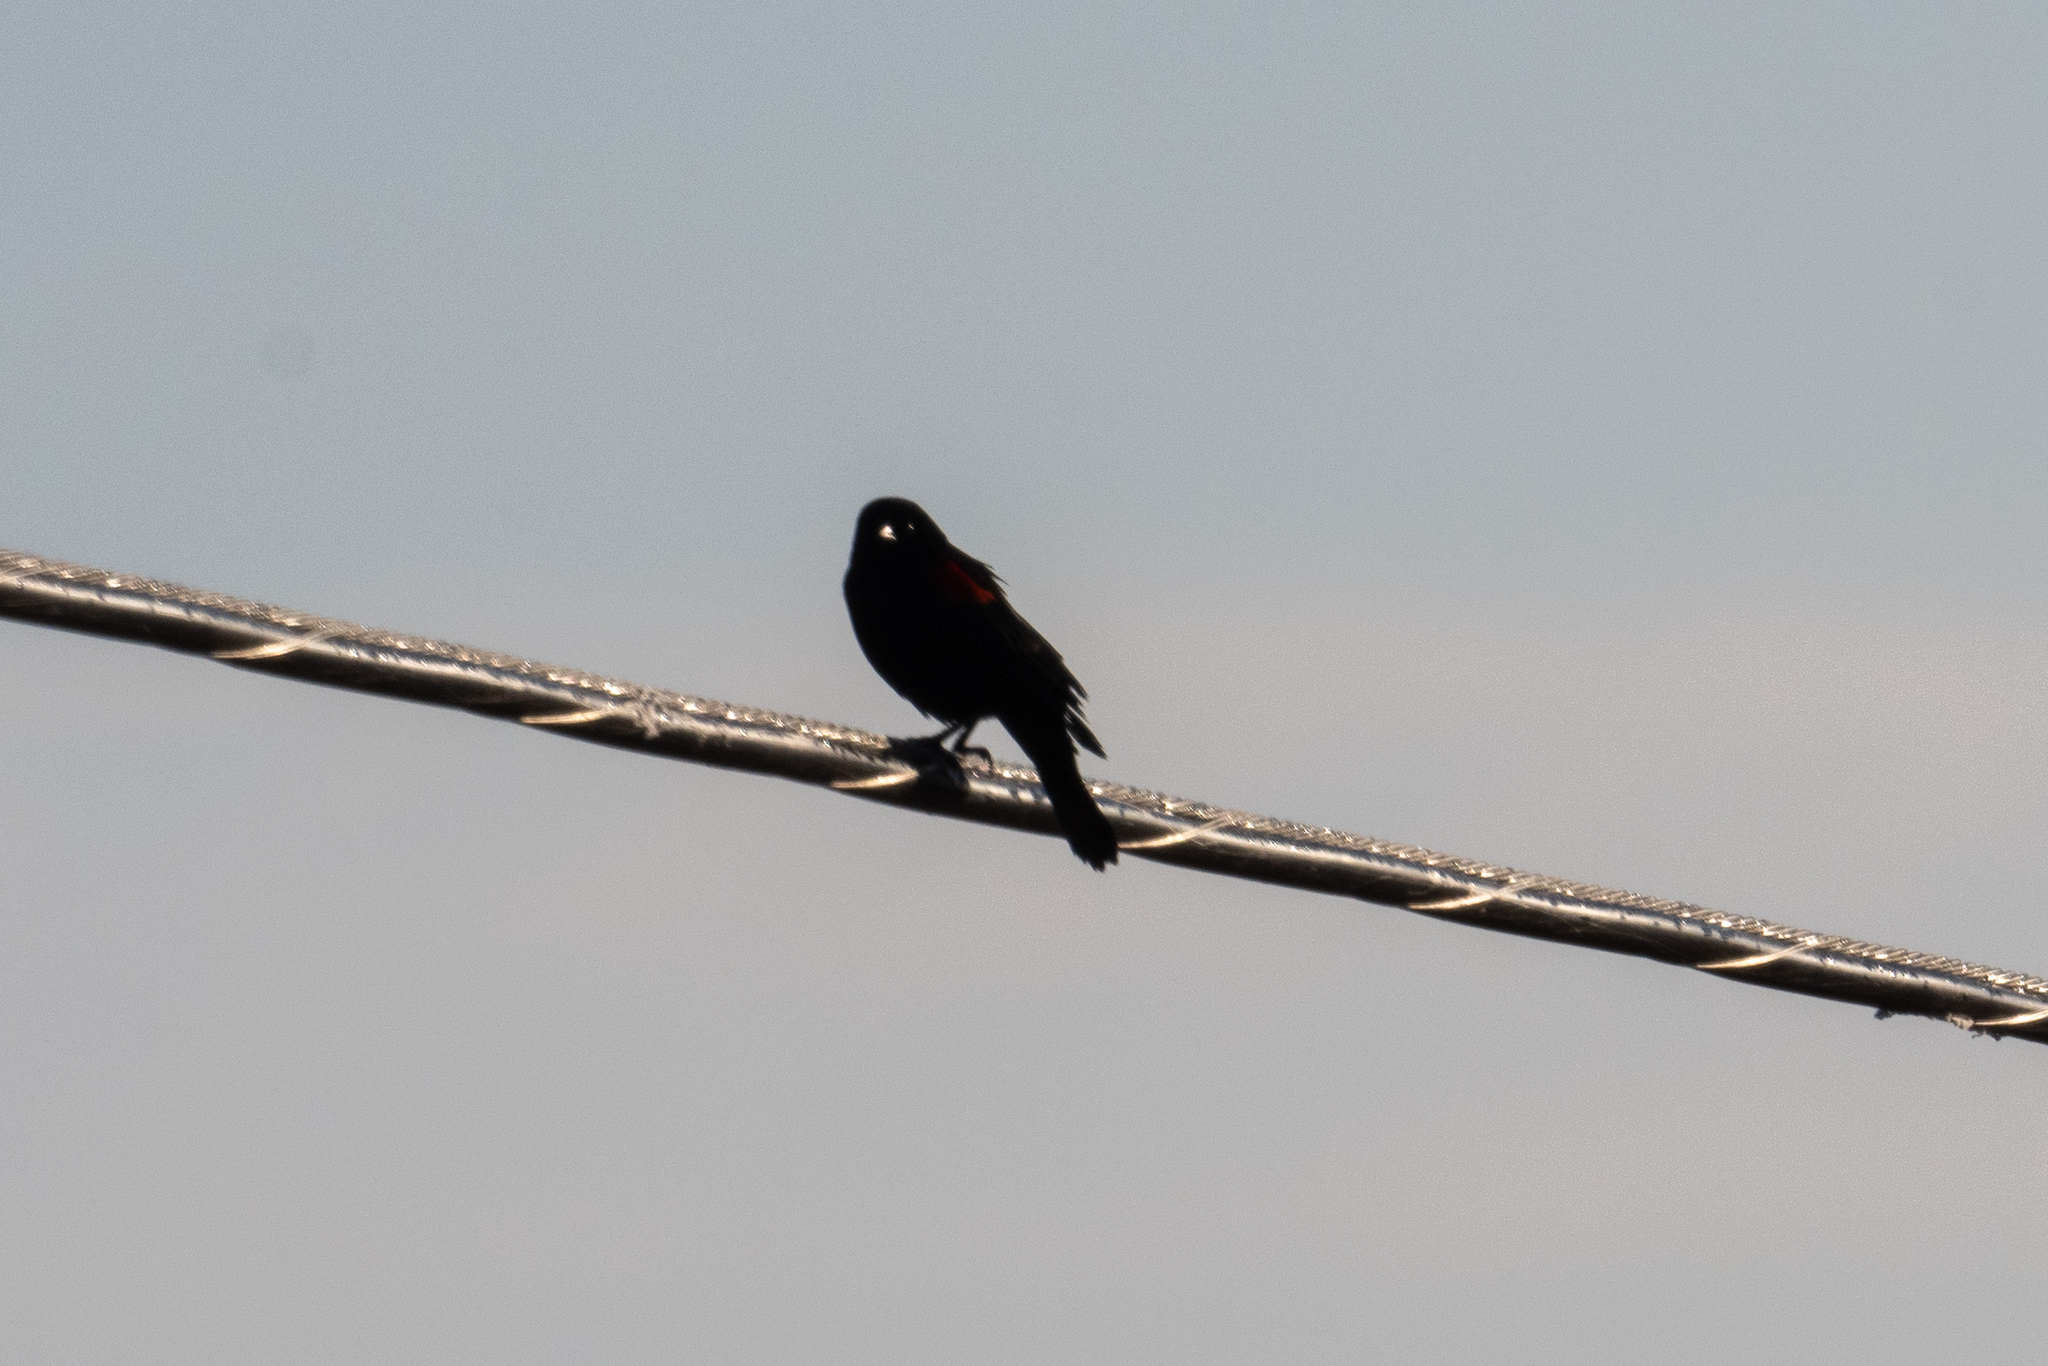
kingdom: Animalia
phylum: Chordata
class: Aves
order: Passeriformes
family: Icteridae
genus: Agelaius
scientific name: Agelaius phoeniceus
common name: Red-winged blackbird
